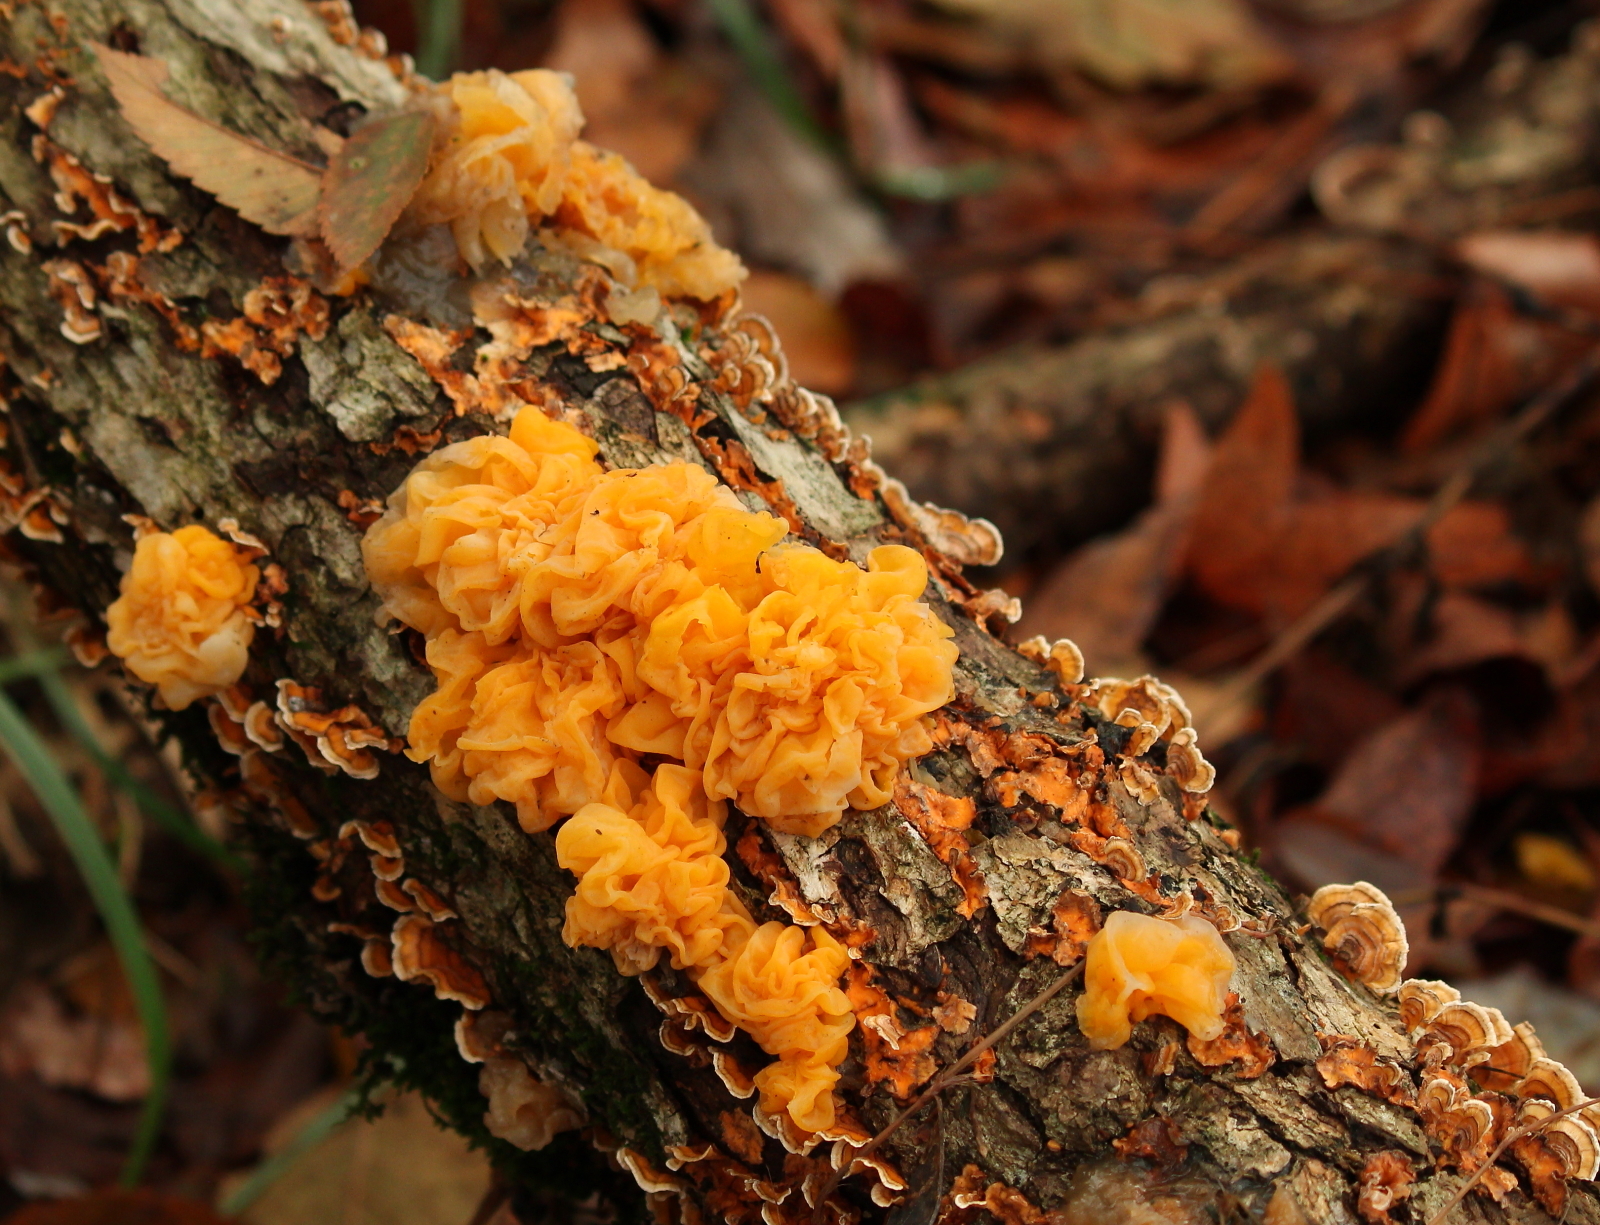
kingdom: Fungi
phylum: Basidiomycota
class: Tremellomycetes
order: Tremellales
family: Naemateliaceae
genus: Naematelia
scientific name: Naematelia aurantia
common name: Golden ear
